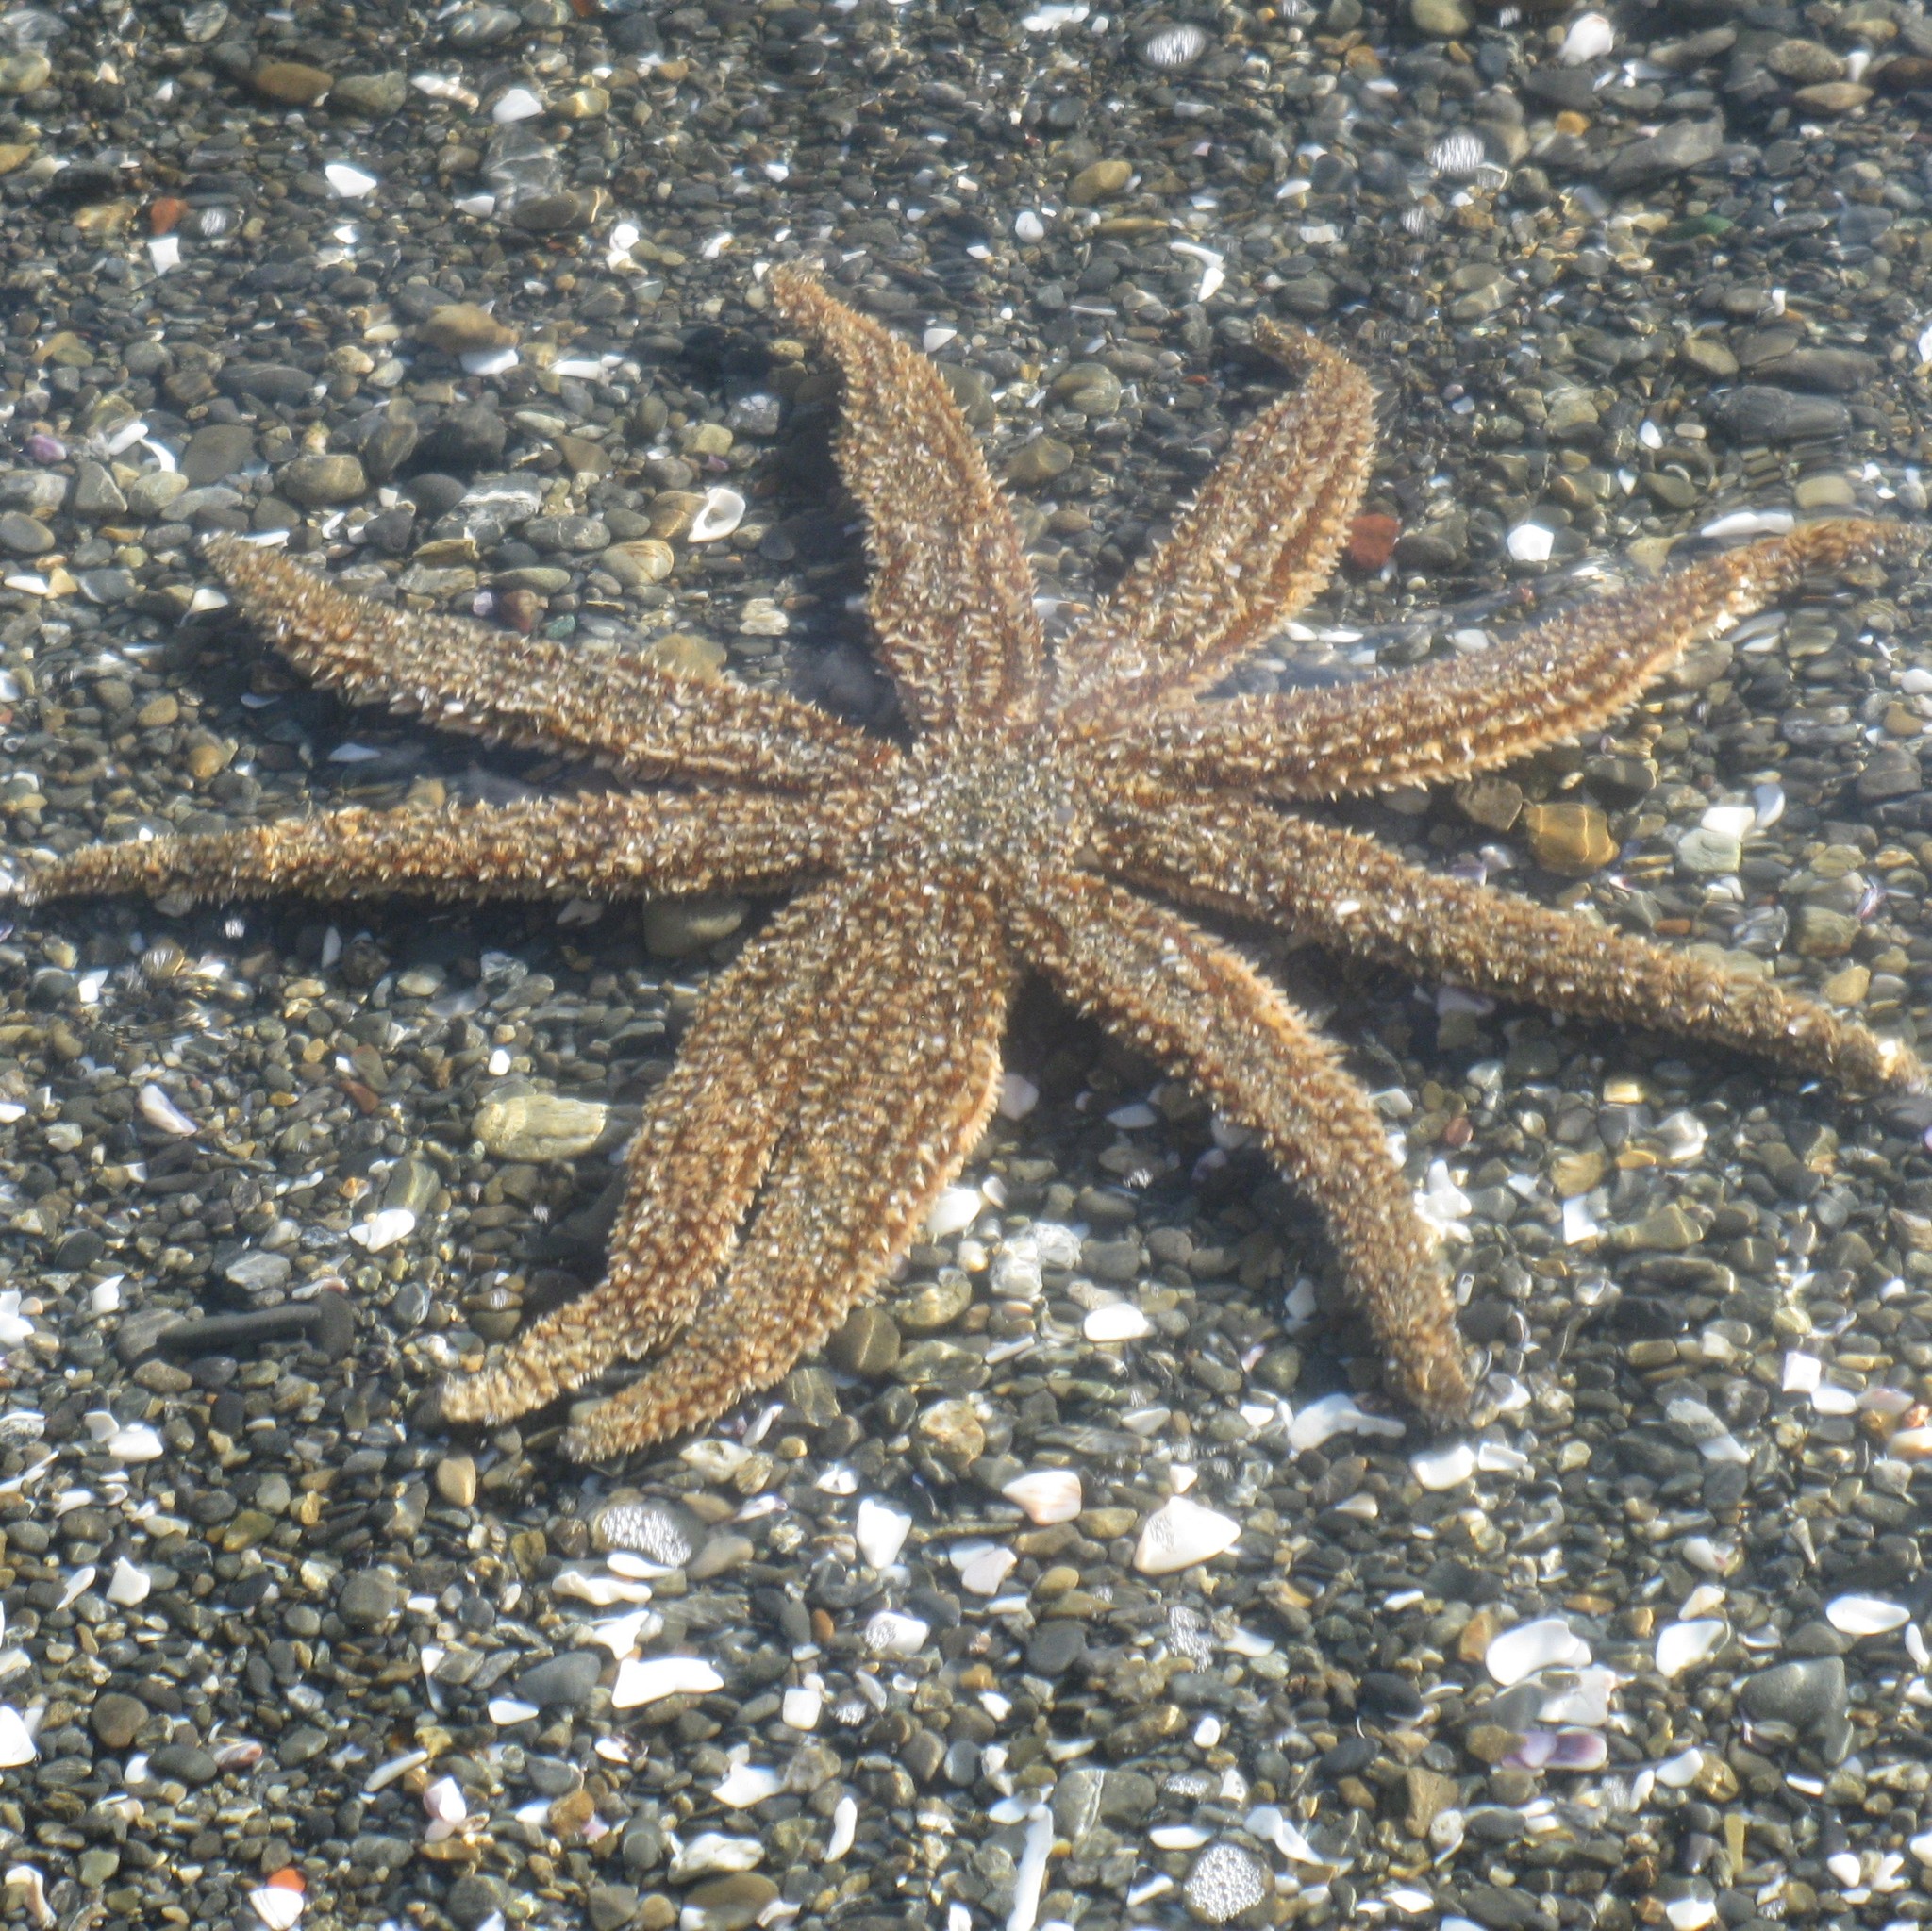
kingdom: Animalia
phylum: Echinodermata
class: Asteroidea
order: Forcipulatida
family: Asteriidae
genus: Coscinasterias
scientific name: Coscinasterias muricata
